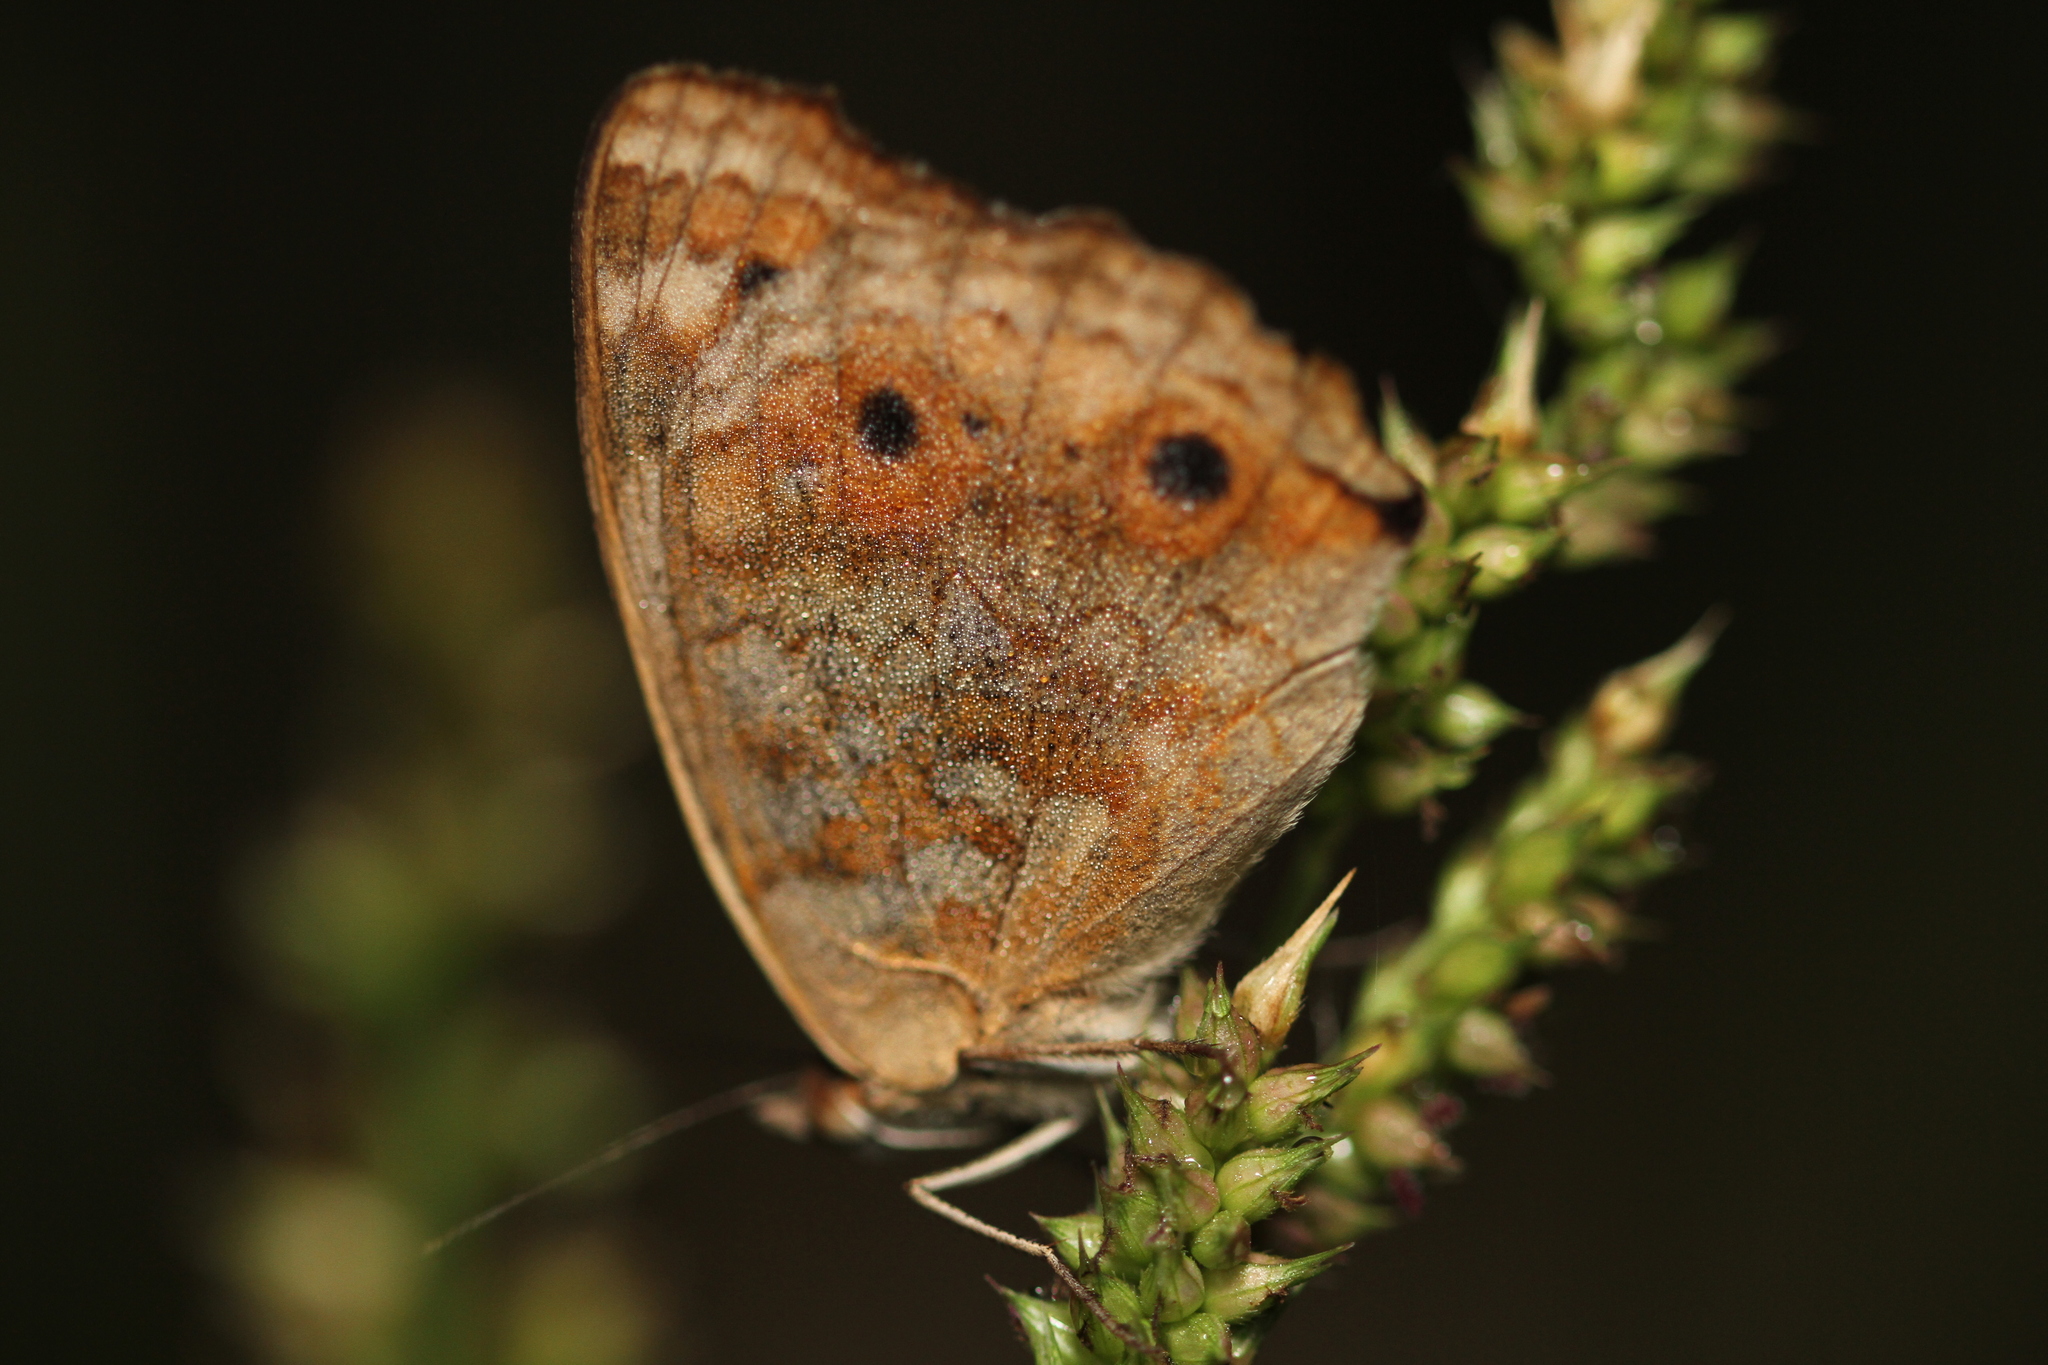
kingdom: Animalia
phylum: Arthropoda
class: Insecta
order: Lepidoptera
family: Nymphalidae
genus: Junonia
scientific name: Junonia orithya
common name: Blue pansy
